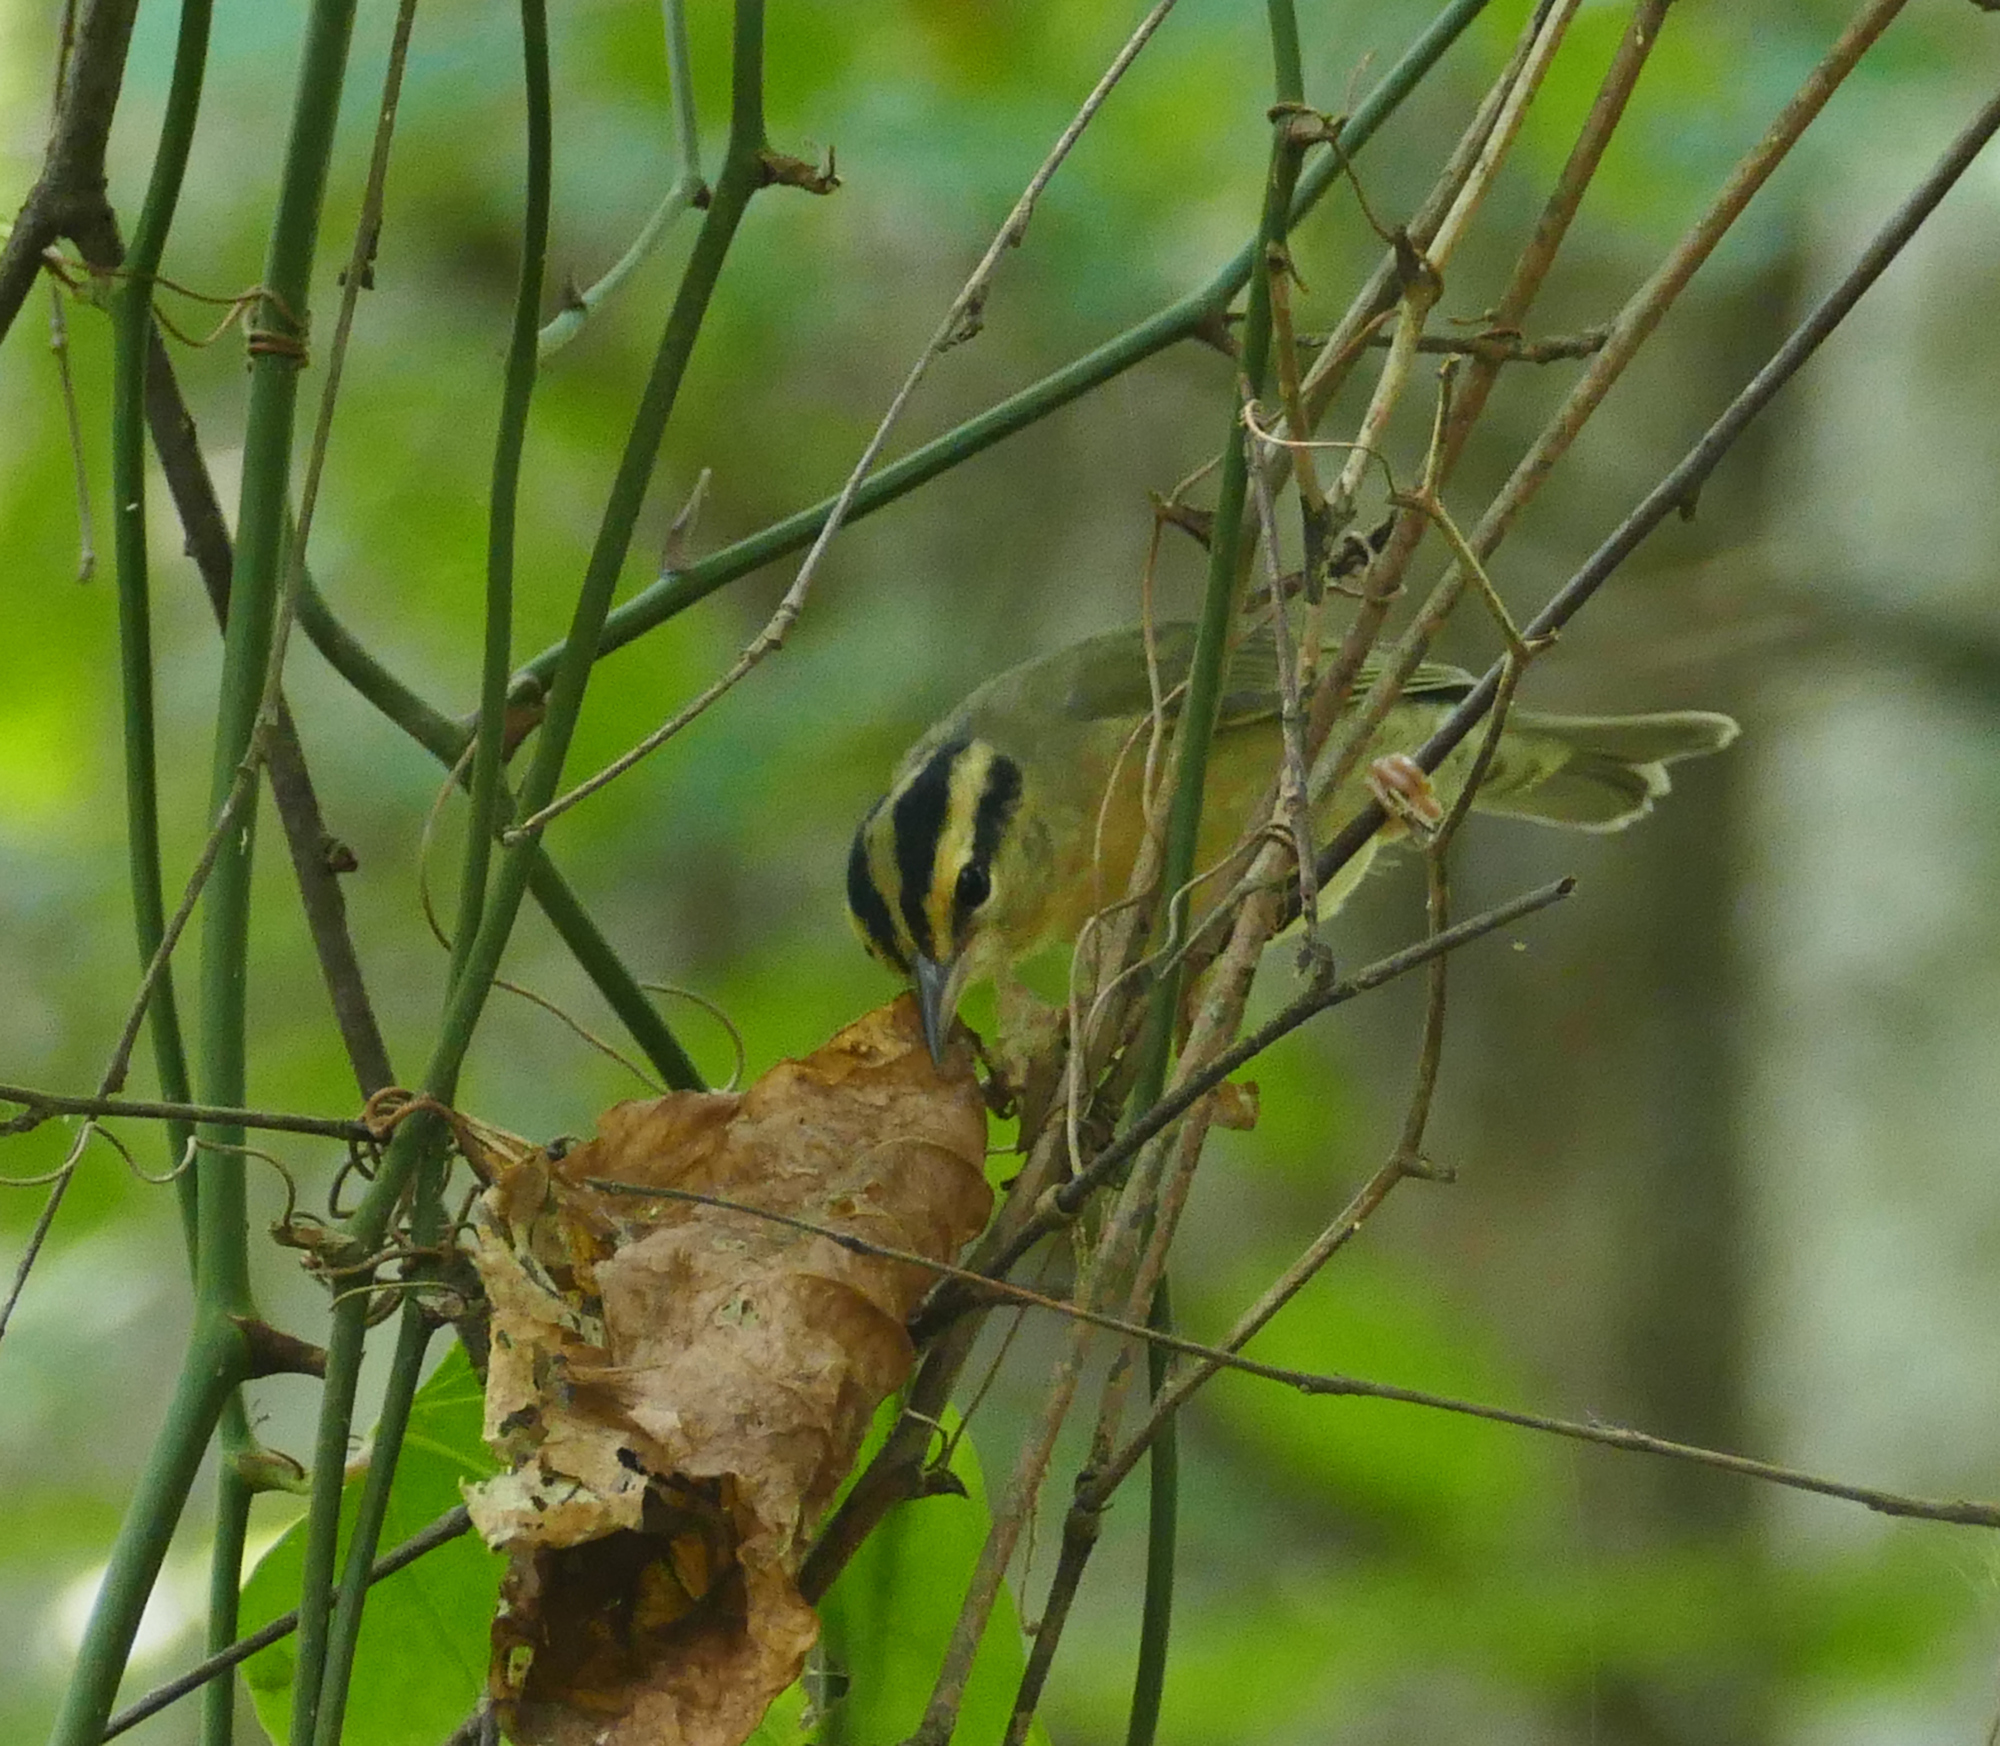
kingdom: Animalia
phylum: Chordata
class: Aves
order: Passeriformes
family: Parulidae
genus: Helmitheros
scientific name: Helmitheros vermivorum
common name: Worm-eating warbler
